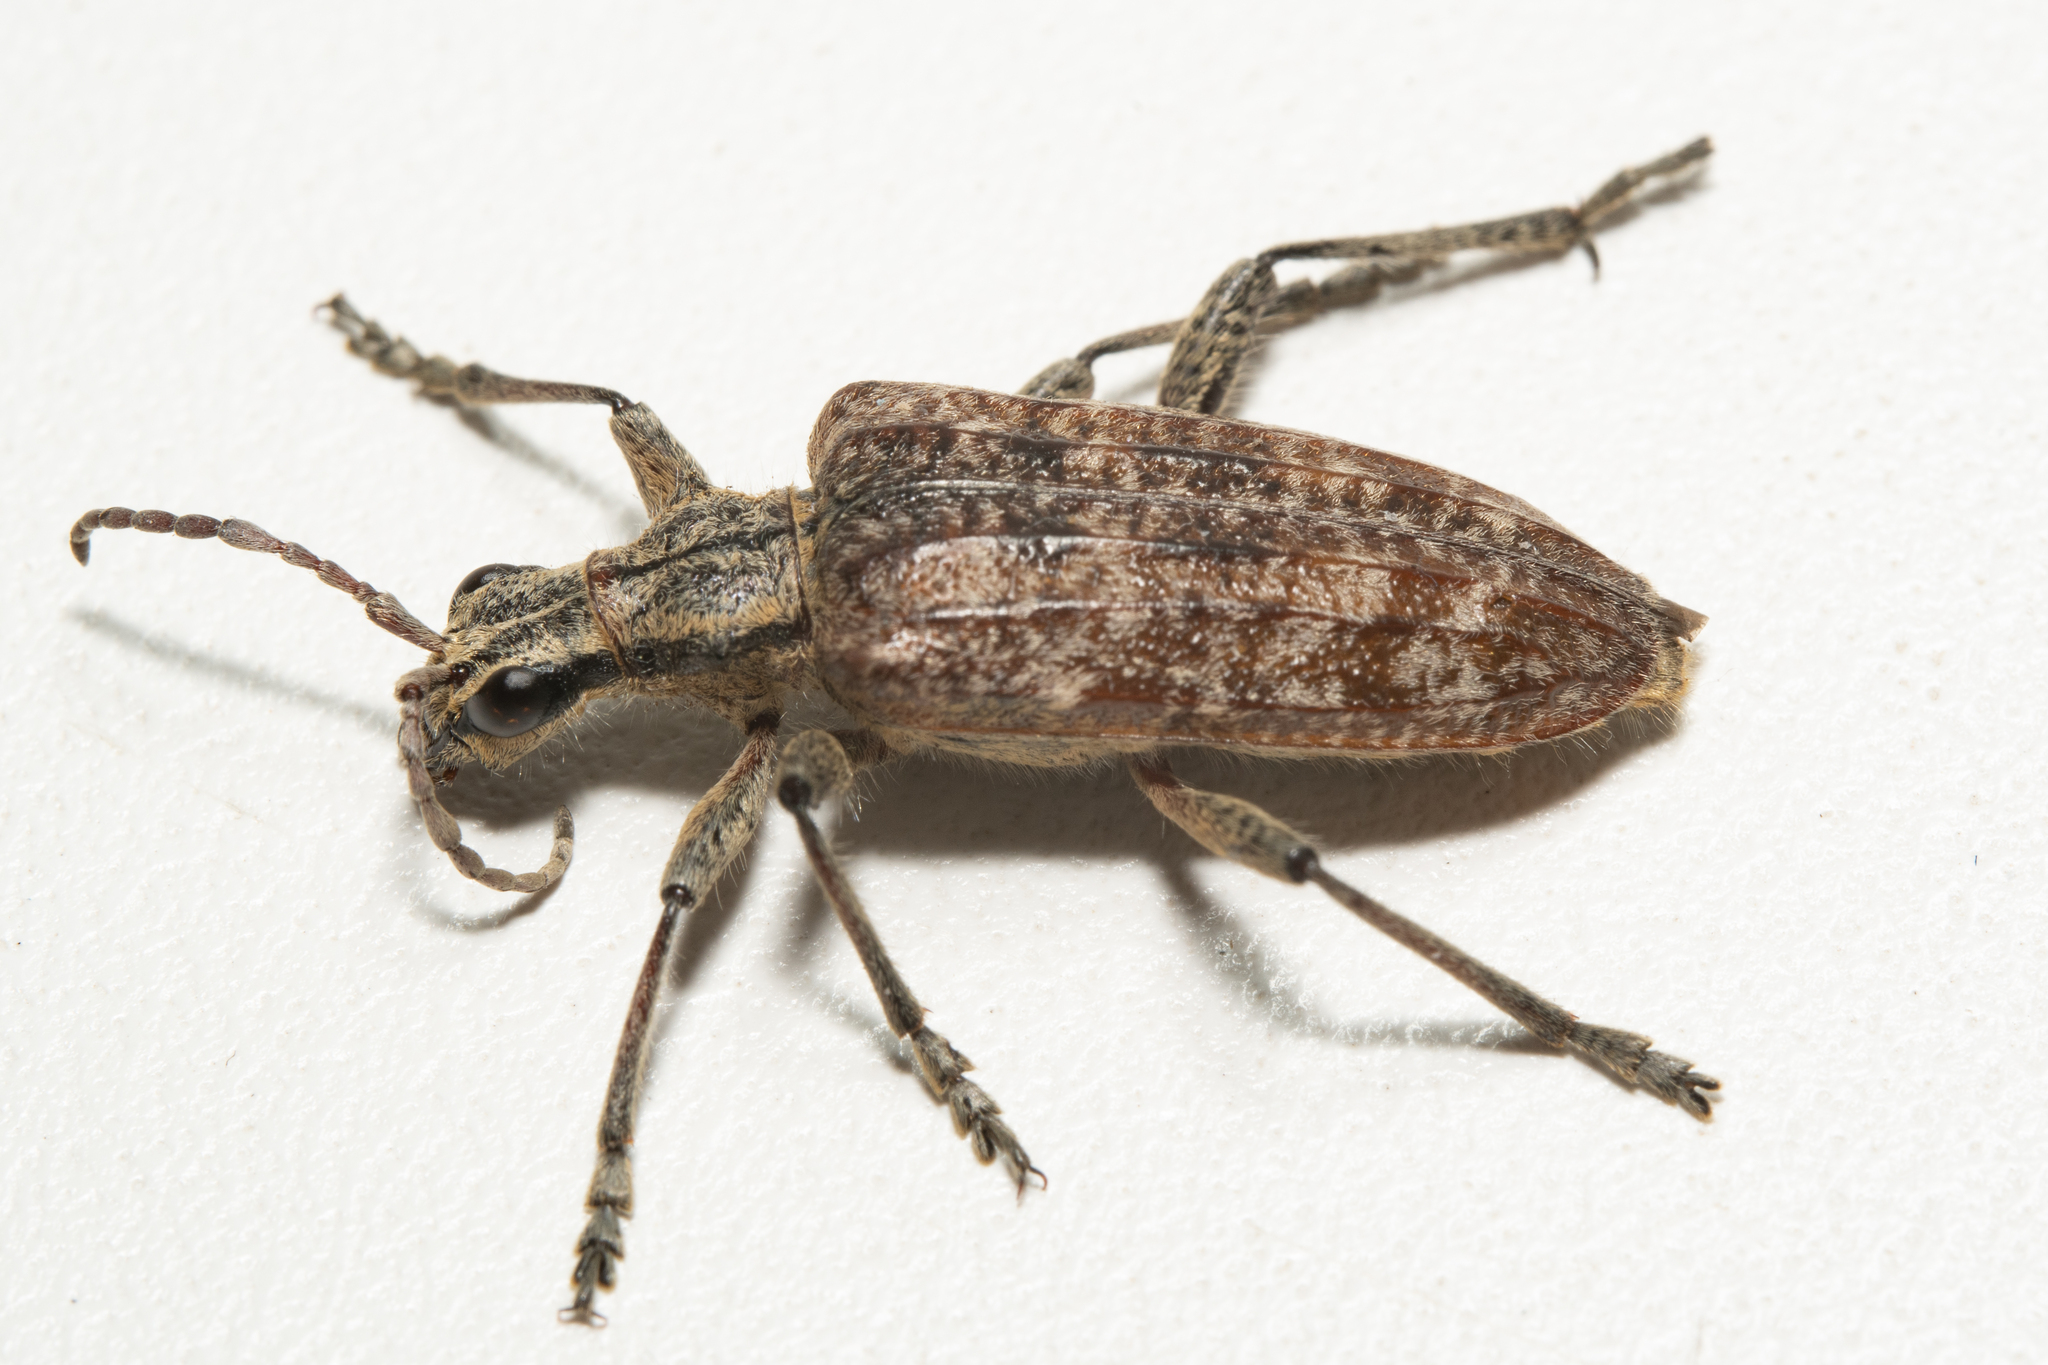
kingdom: Animalia
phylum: Arthropoda
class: Insecta
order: Coleoptera
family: Cerambycidae
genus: Rhagium
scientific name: Rhagium inquisitor
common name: Ribbed pine borer
